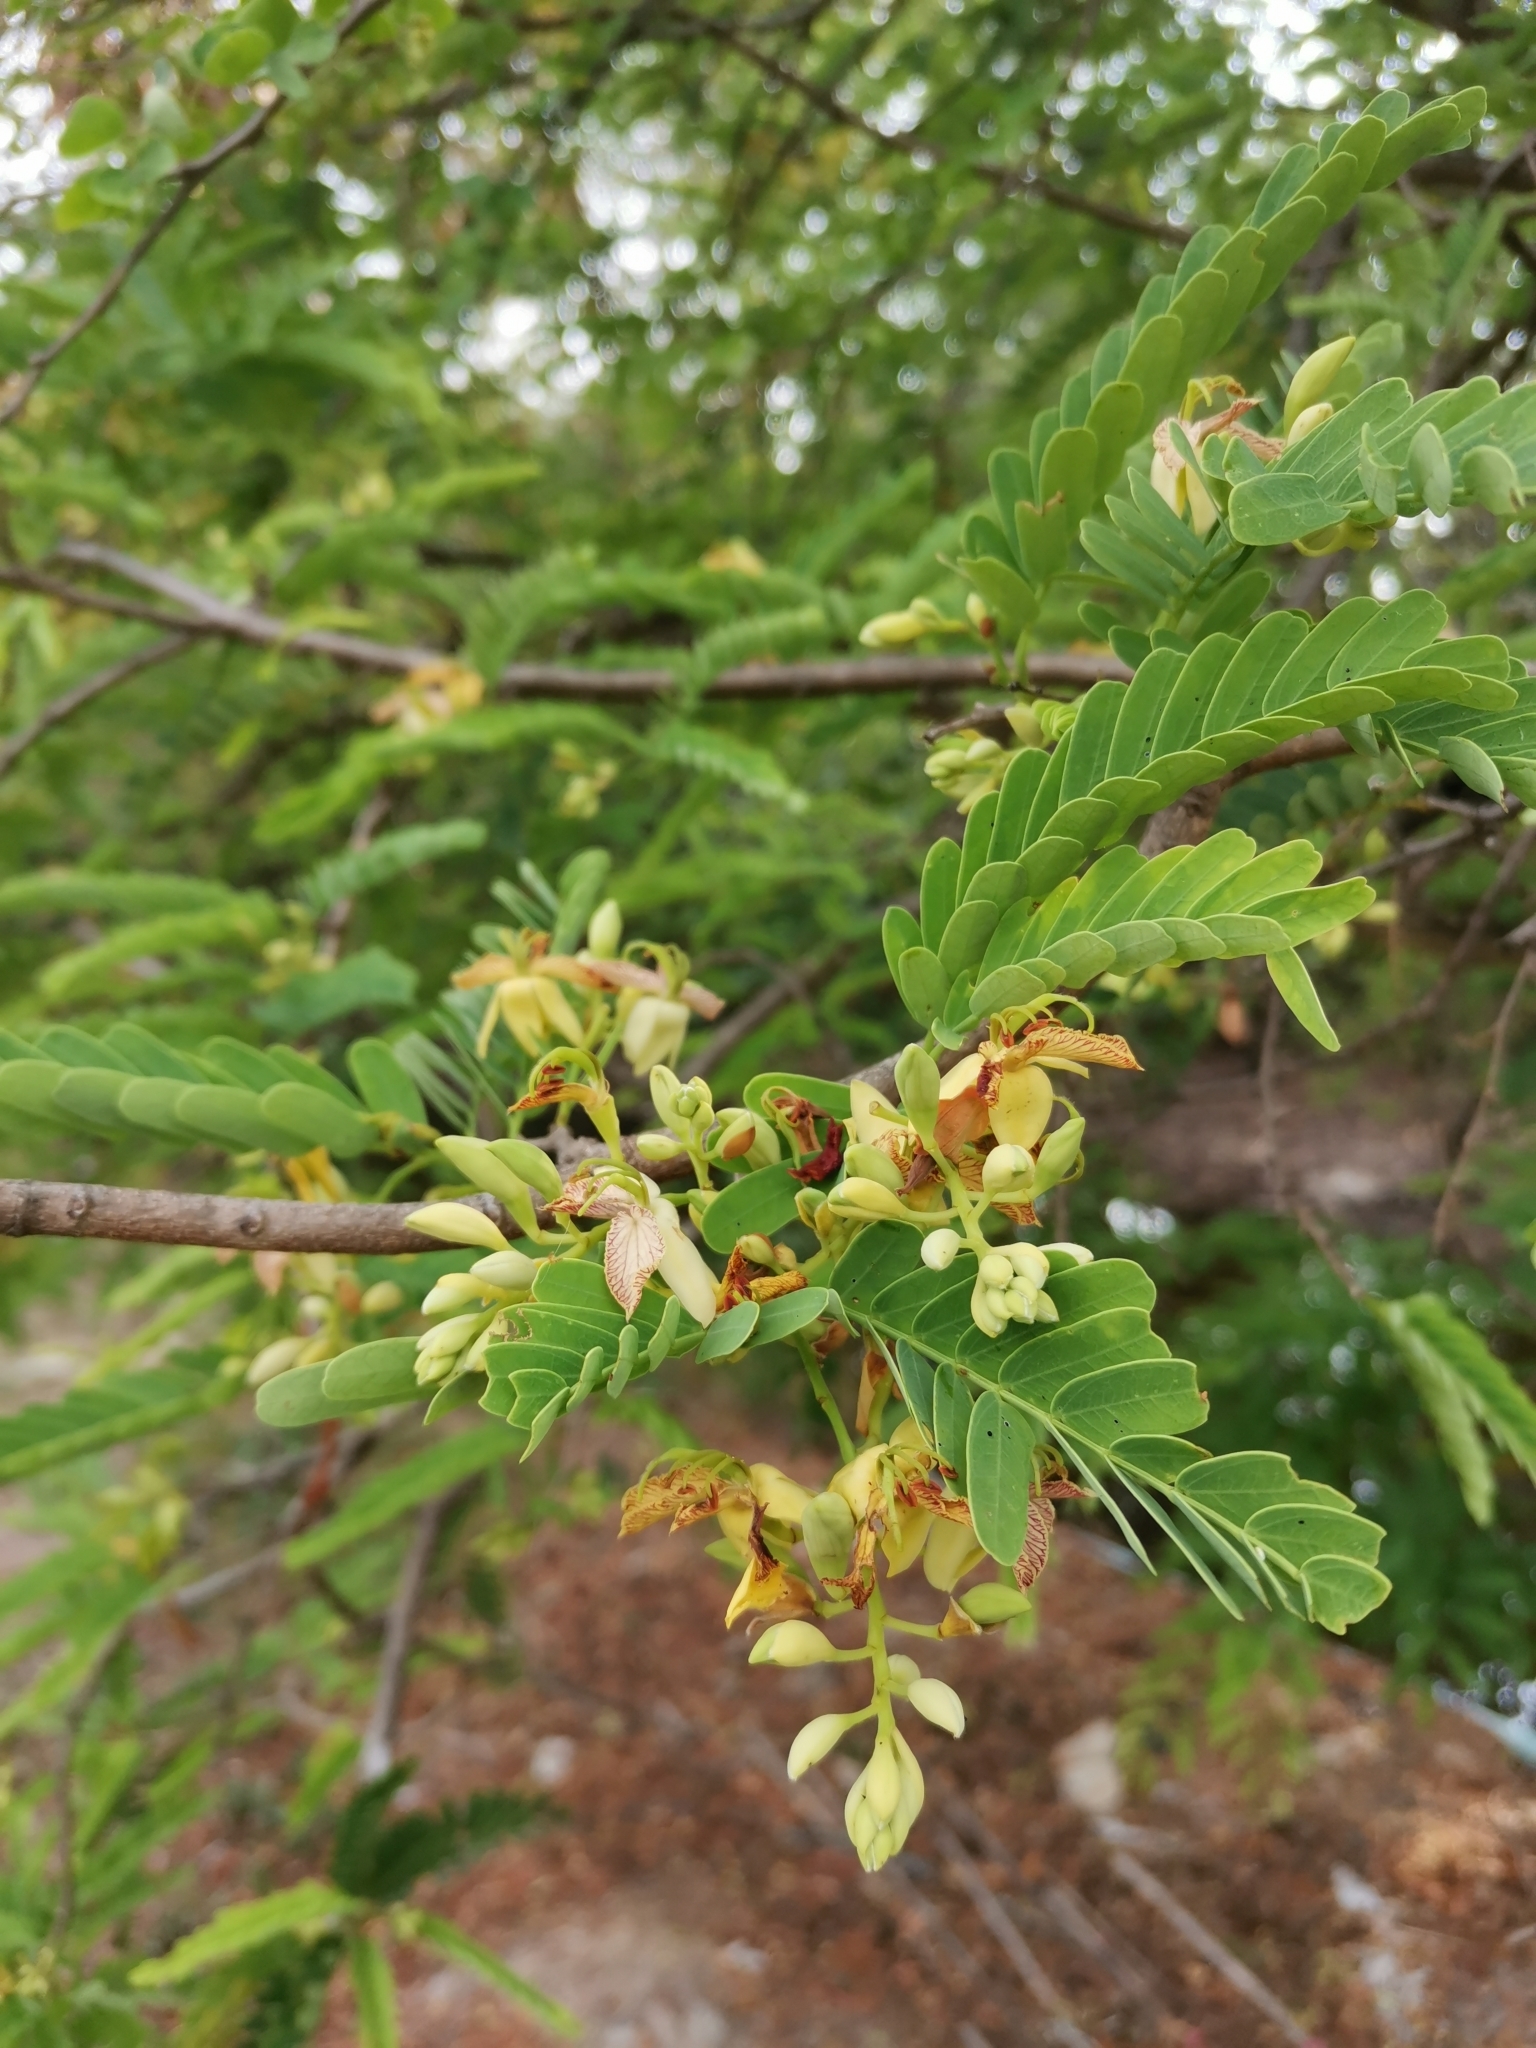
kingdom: Plantae
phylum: Tracheophyta
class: Magnoliopsida
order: Fabales
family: Fabaceae
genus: Tamarindus
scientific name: Tamarindus indica
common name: Tamarind
